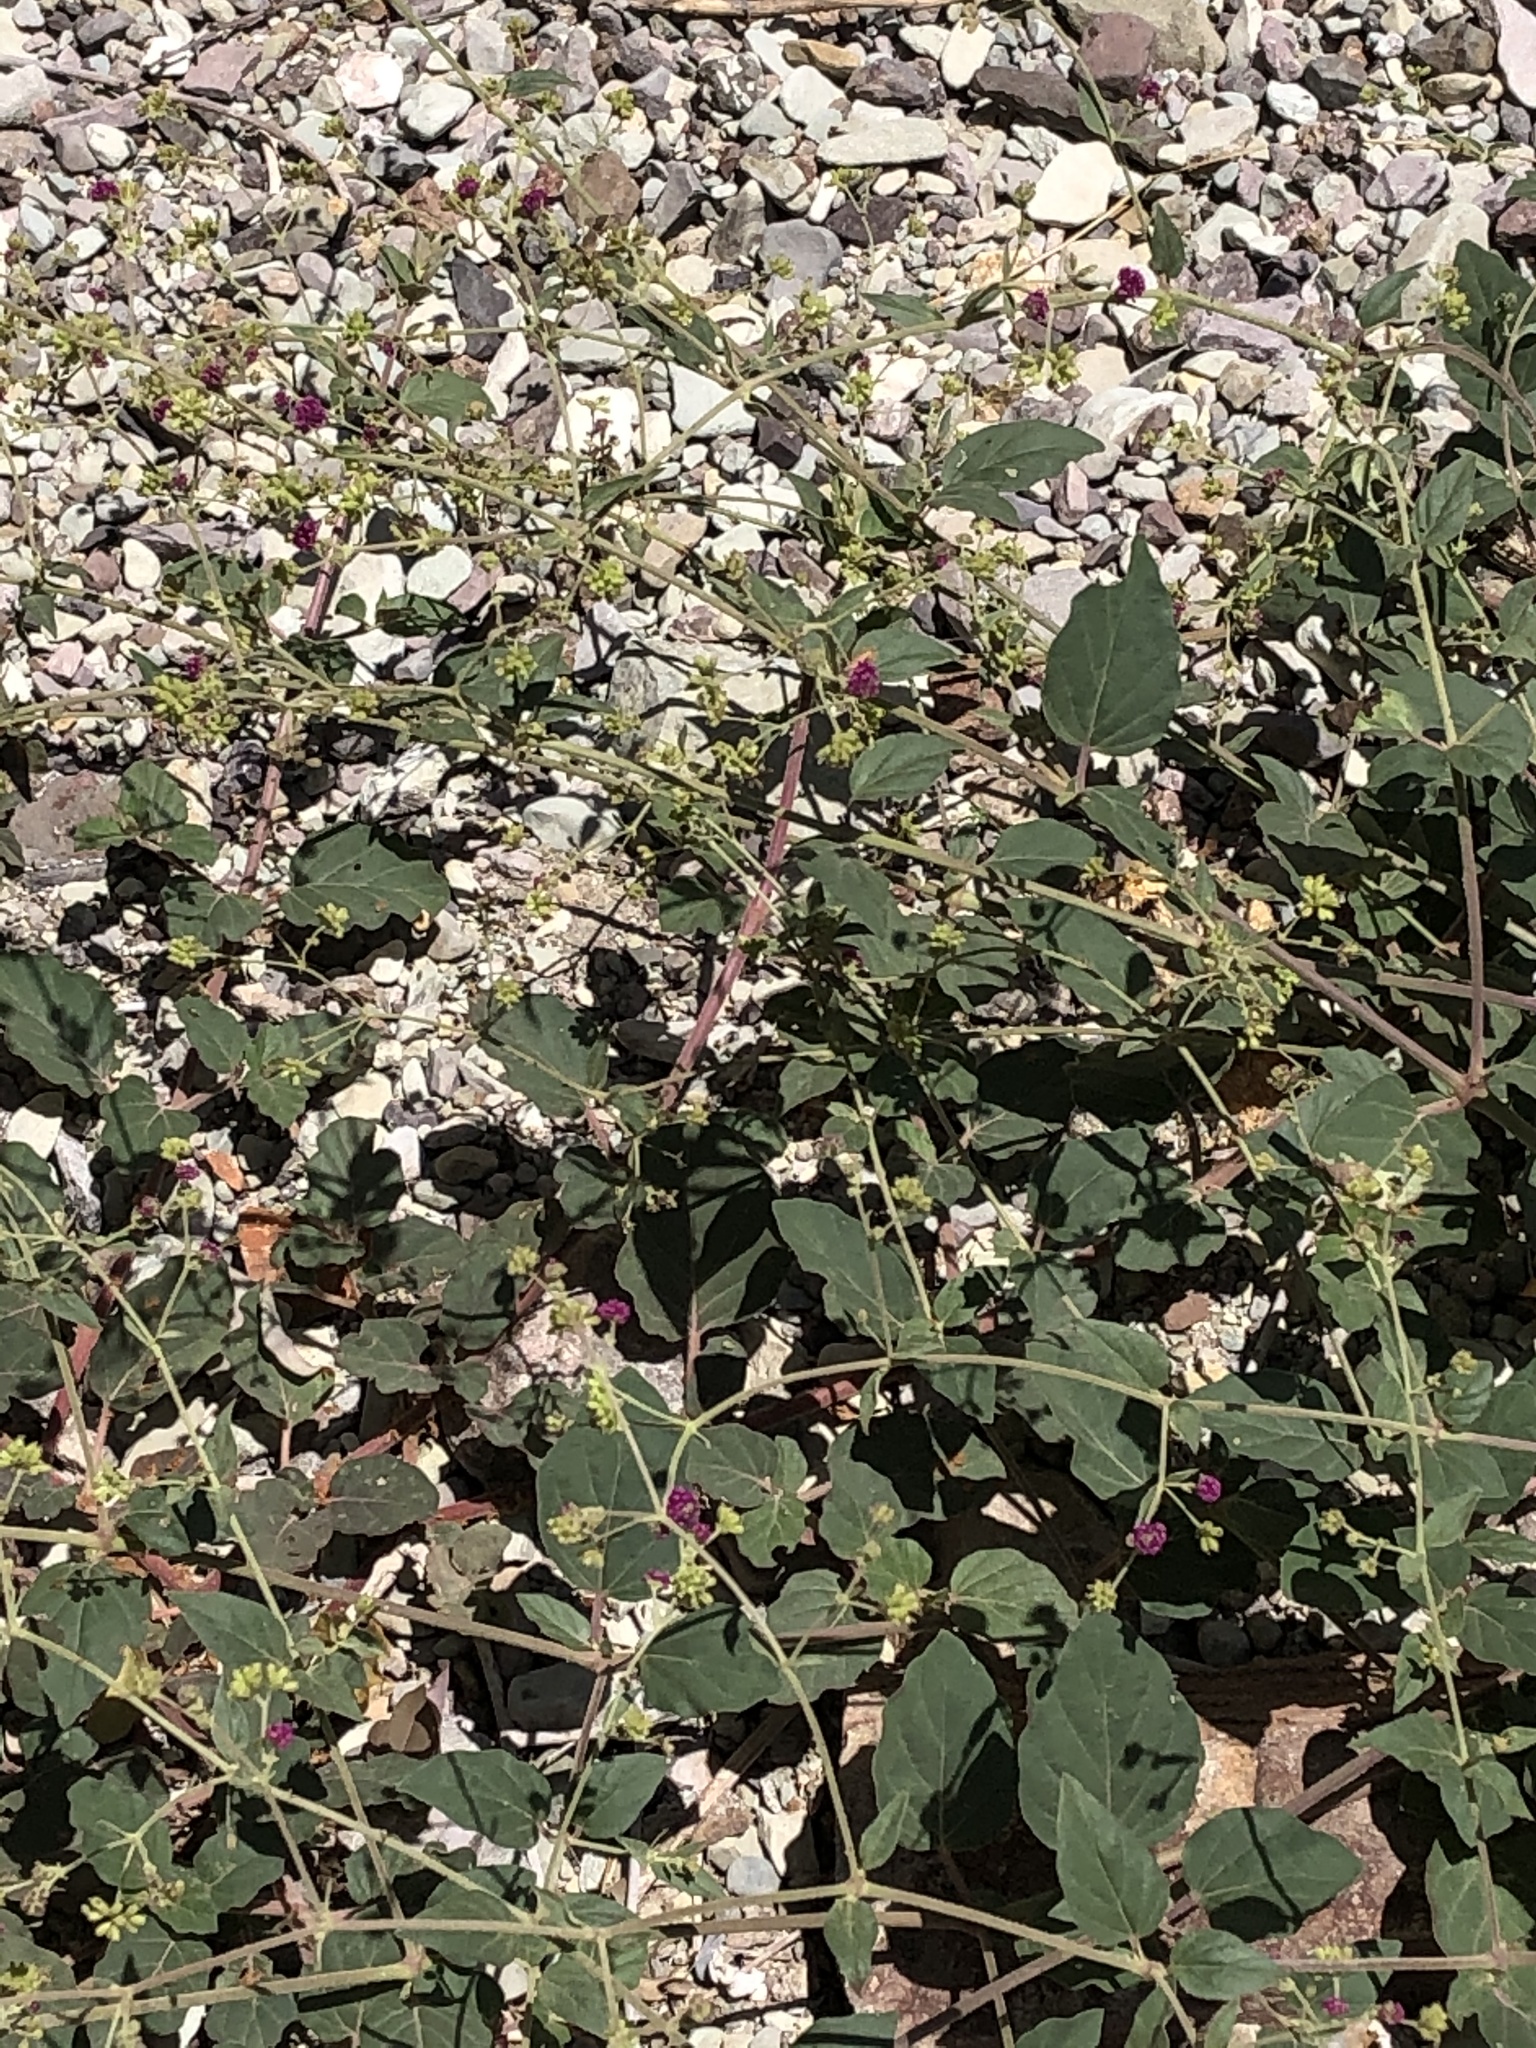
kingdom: Plantae
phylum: Tracheophyta
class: Magnoliopsida
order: Caryophyllales
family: Nyctaginaceae
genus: Boerhavia
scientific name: Boerhavia coccinea
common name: Scarlet spiderling
